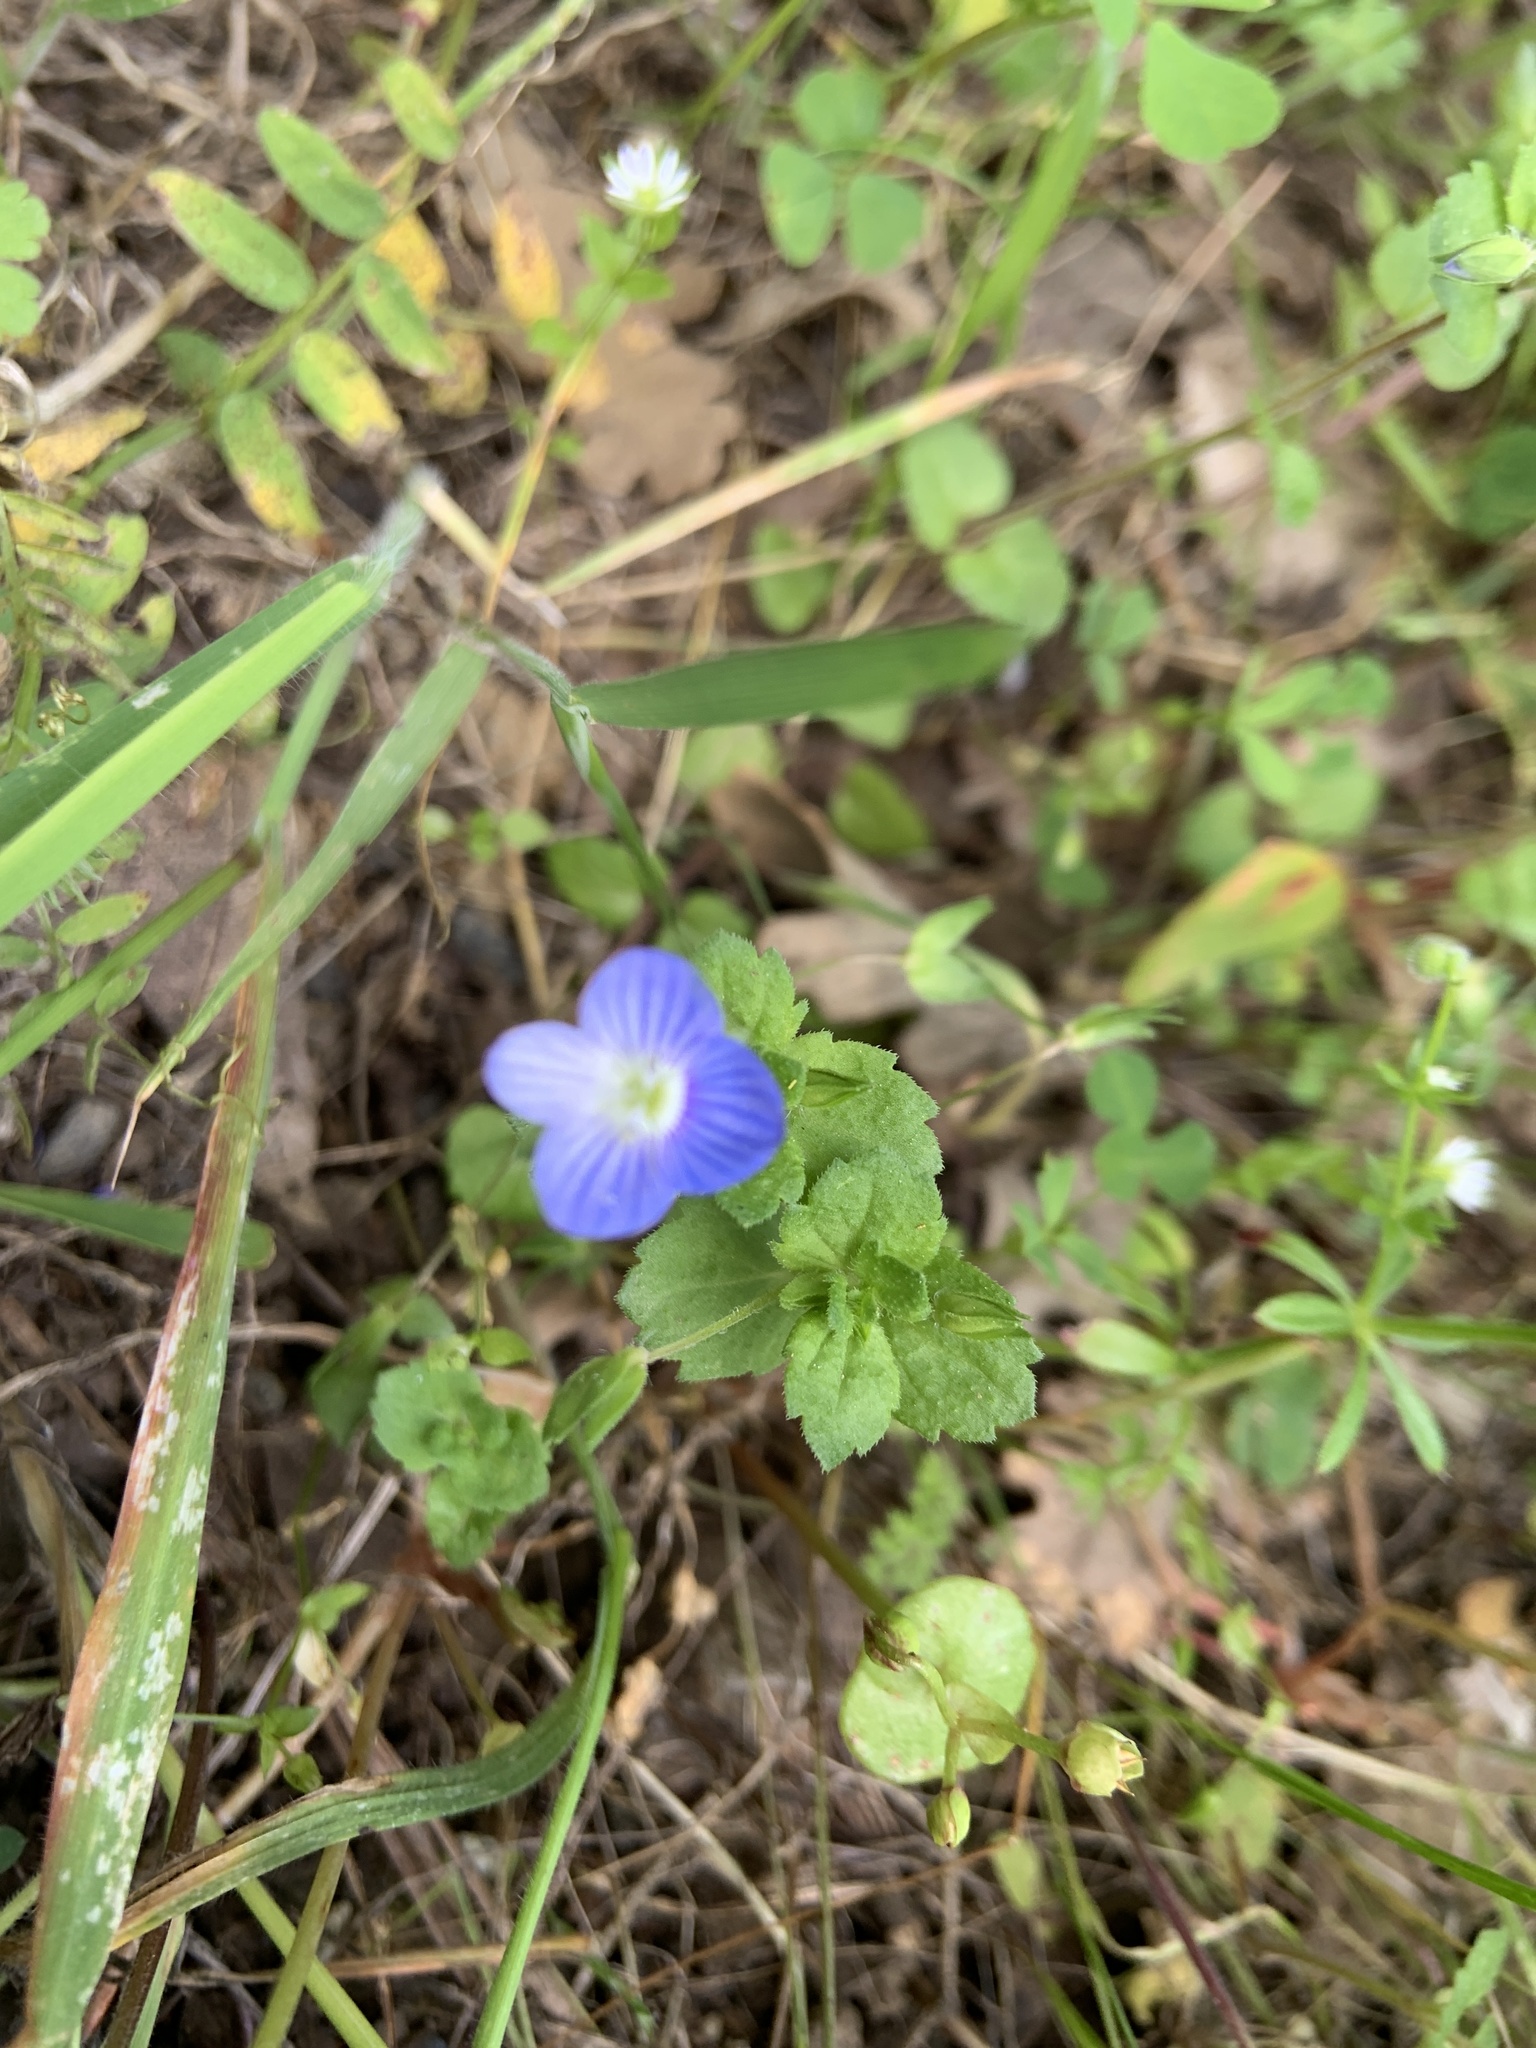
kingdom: Plantae
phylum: Tracheophyta
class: Magnoliopsida
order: Lamiales
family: Plantaginaceae
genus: Veronica
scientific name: Veronica persica
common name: Common field-speedwell
